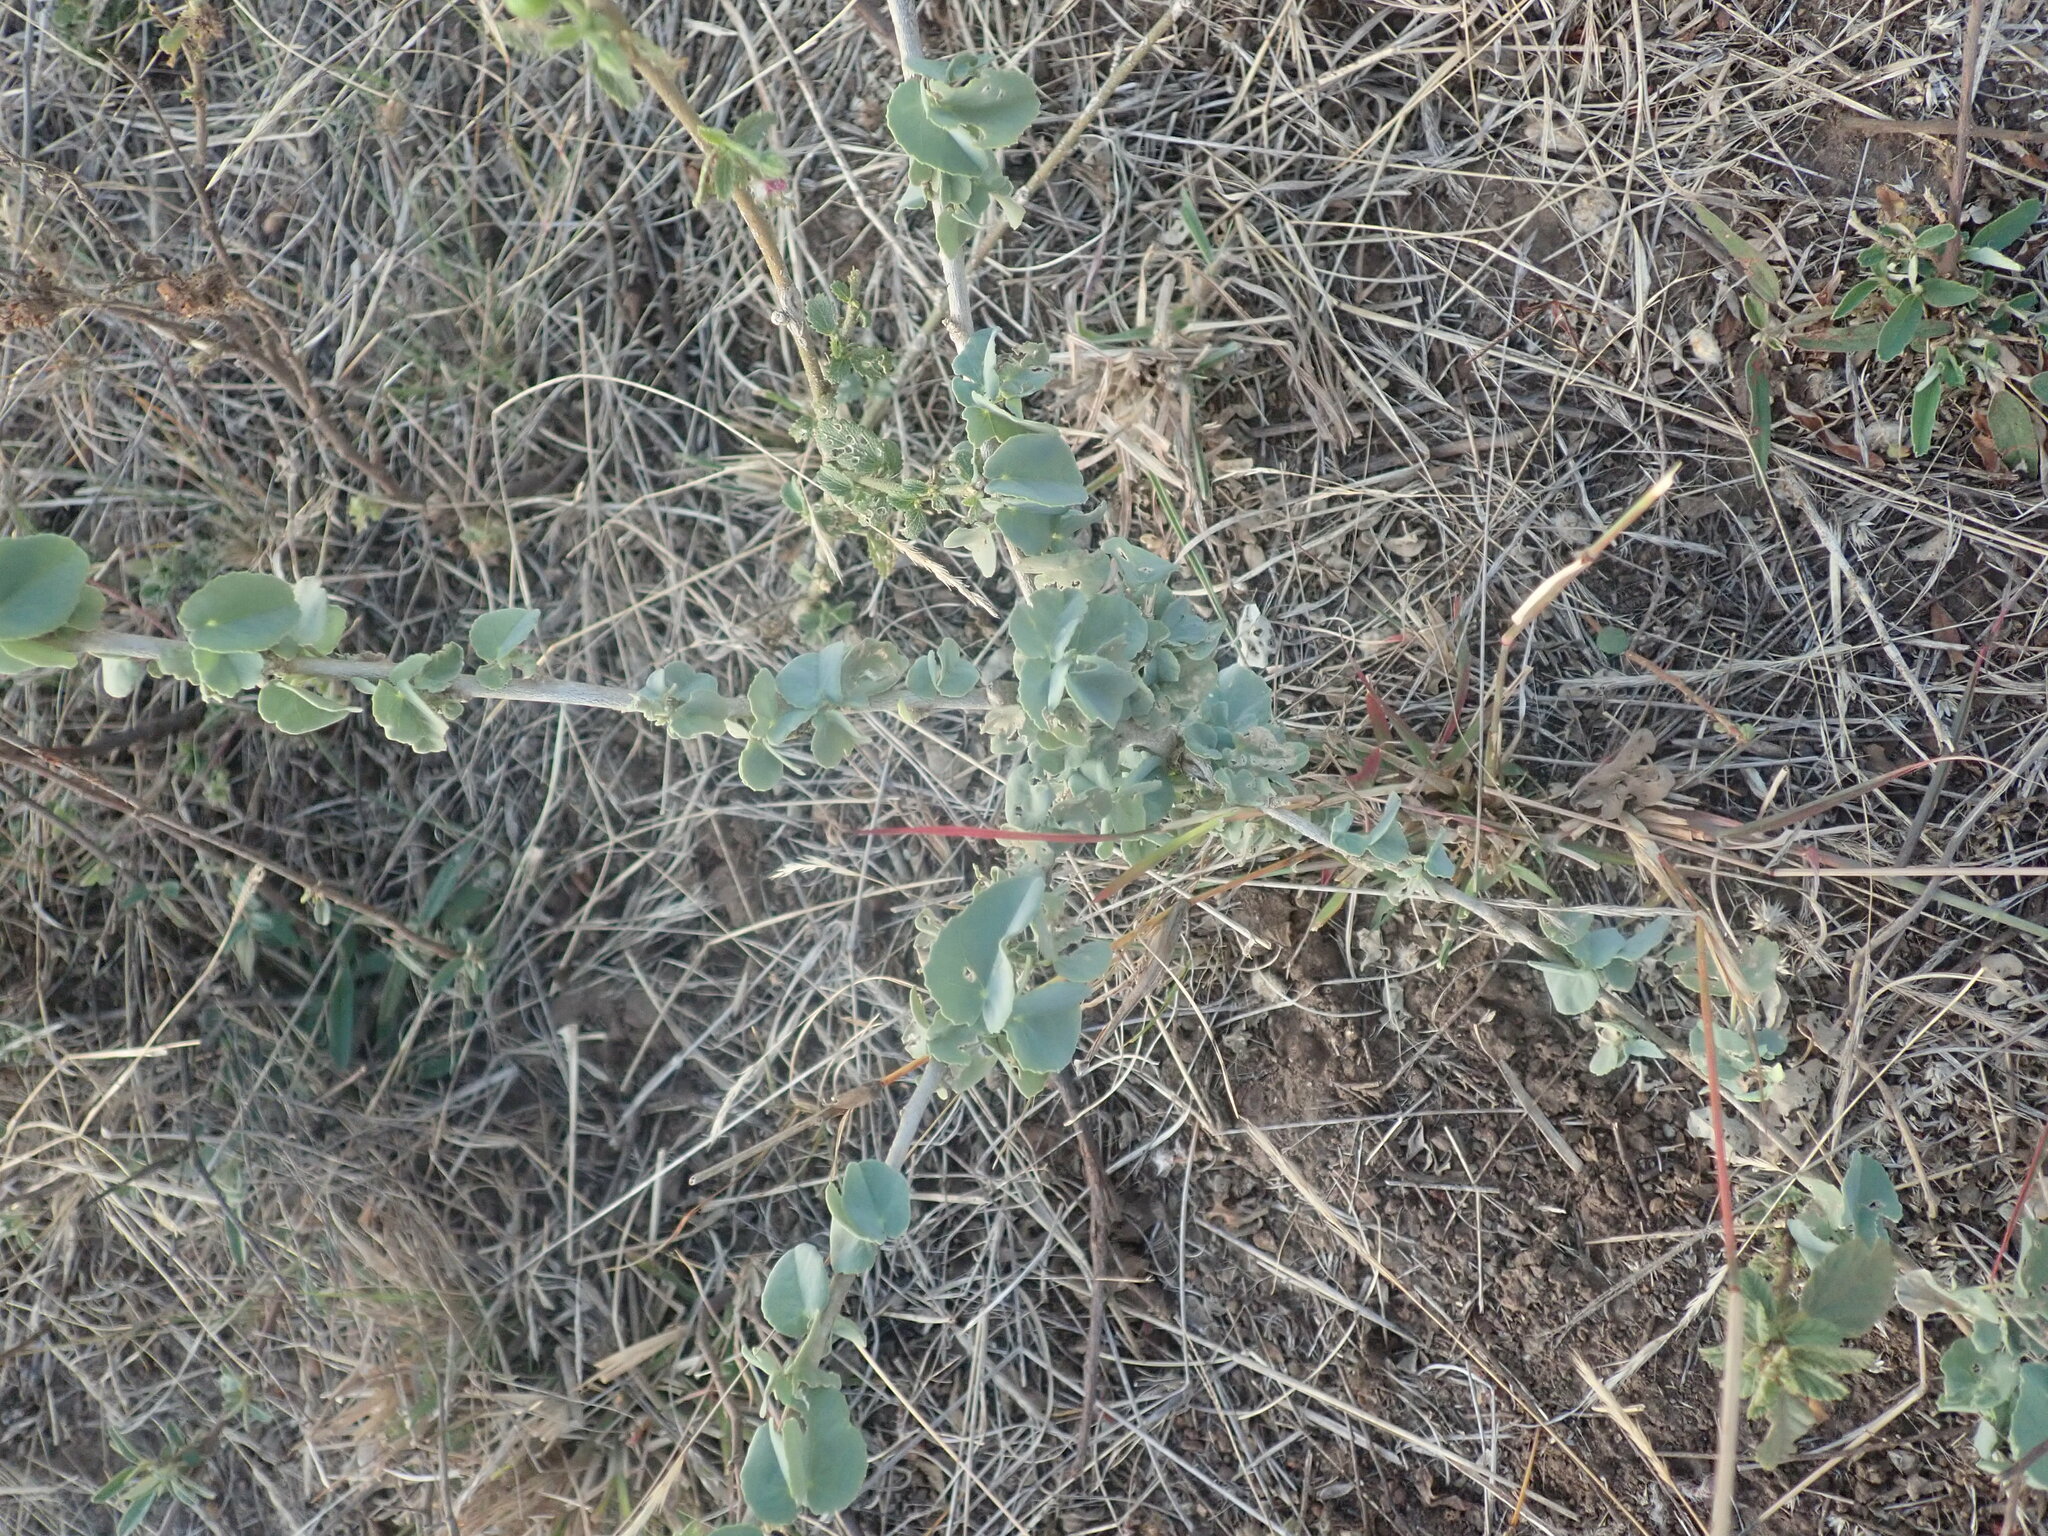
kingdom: Plantae
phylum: Tracheophyta
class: Magnoliopsida
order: Malvales
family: Malvaceae
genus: Abutilon
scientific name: Abutilon austroafricanum
